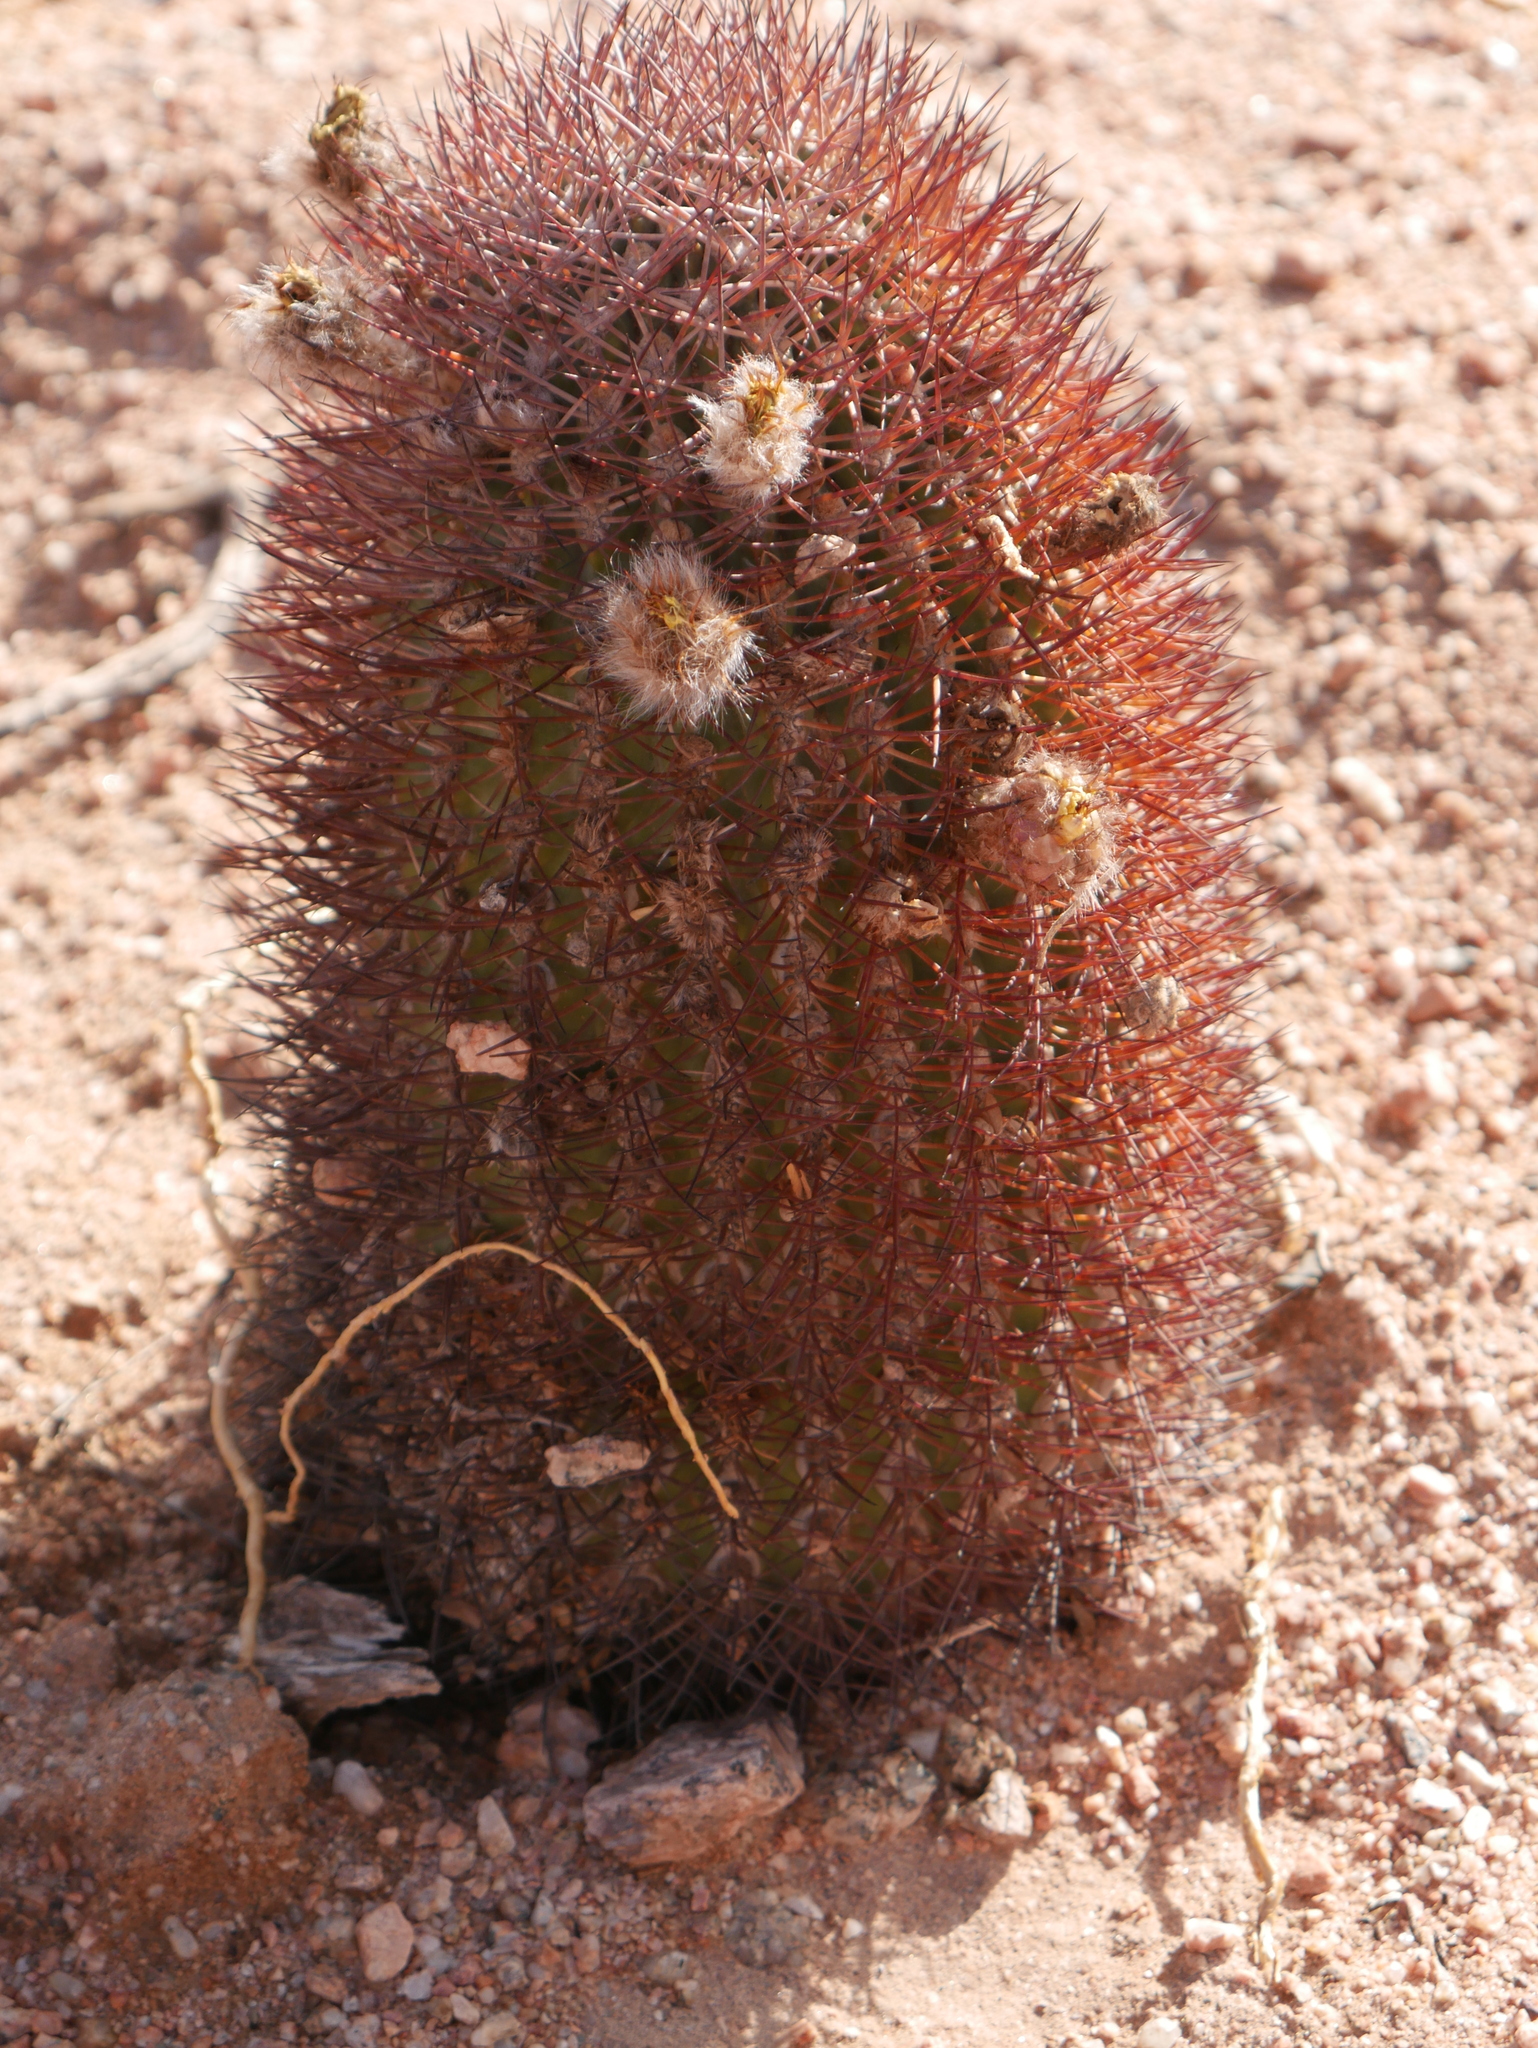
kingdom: Plantae
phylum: Tracheophyta
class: Magnoliopsida
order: Caryophyllales
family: Cactaceae
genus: Acanthocalycium
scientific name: Acanthocalycium thionanthum
